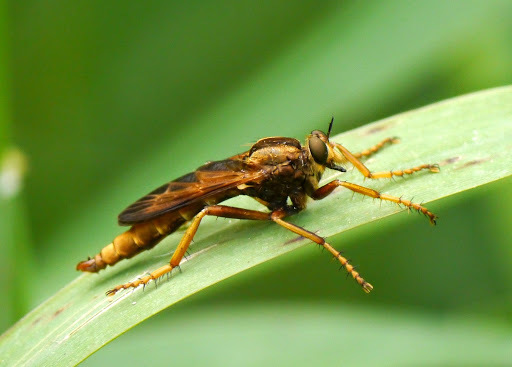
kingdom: Animalia
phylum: Arthropoda
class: Insecta
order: Diptera
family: Asilidae
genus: Asilus
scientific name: Asilus sericeus
